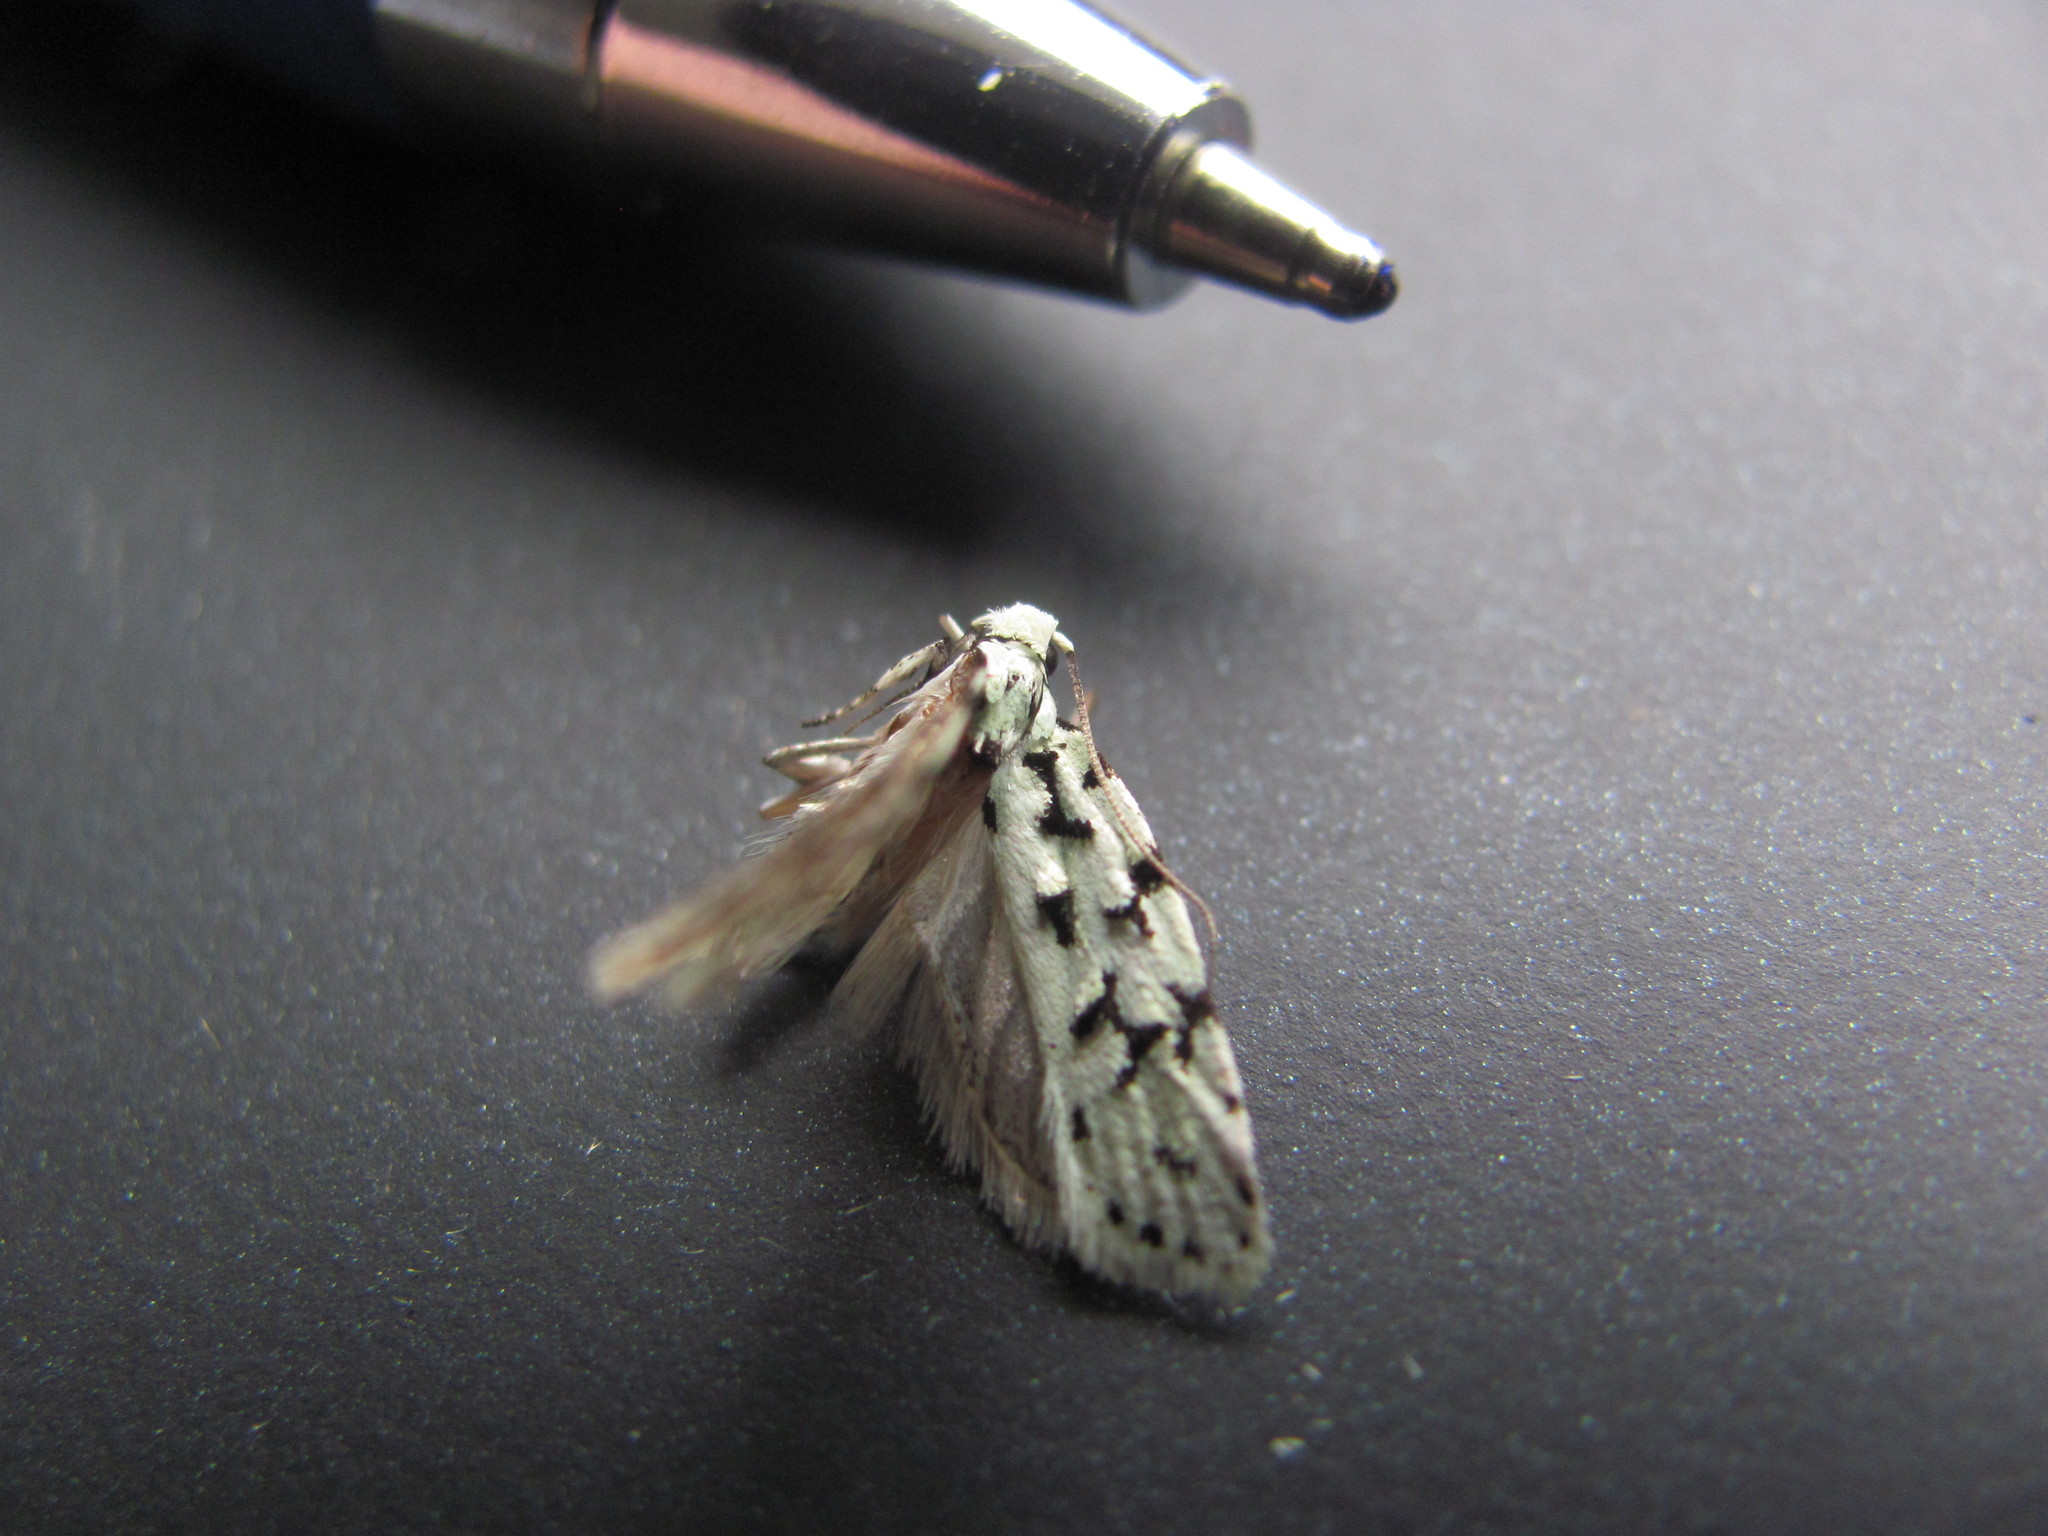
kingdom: Animalia
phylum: Arthropoda
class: Insecta
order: Lepidoptera
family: Oecophoridae
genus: Izatha
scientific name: Izatha huttoni
